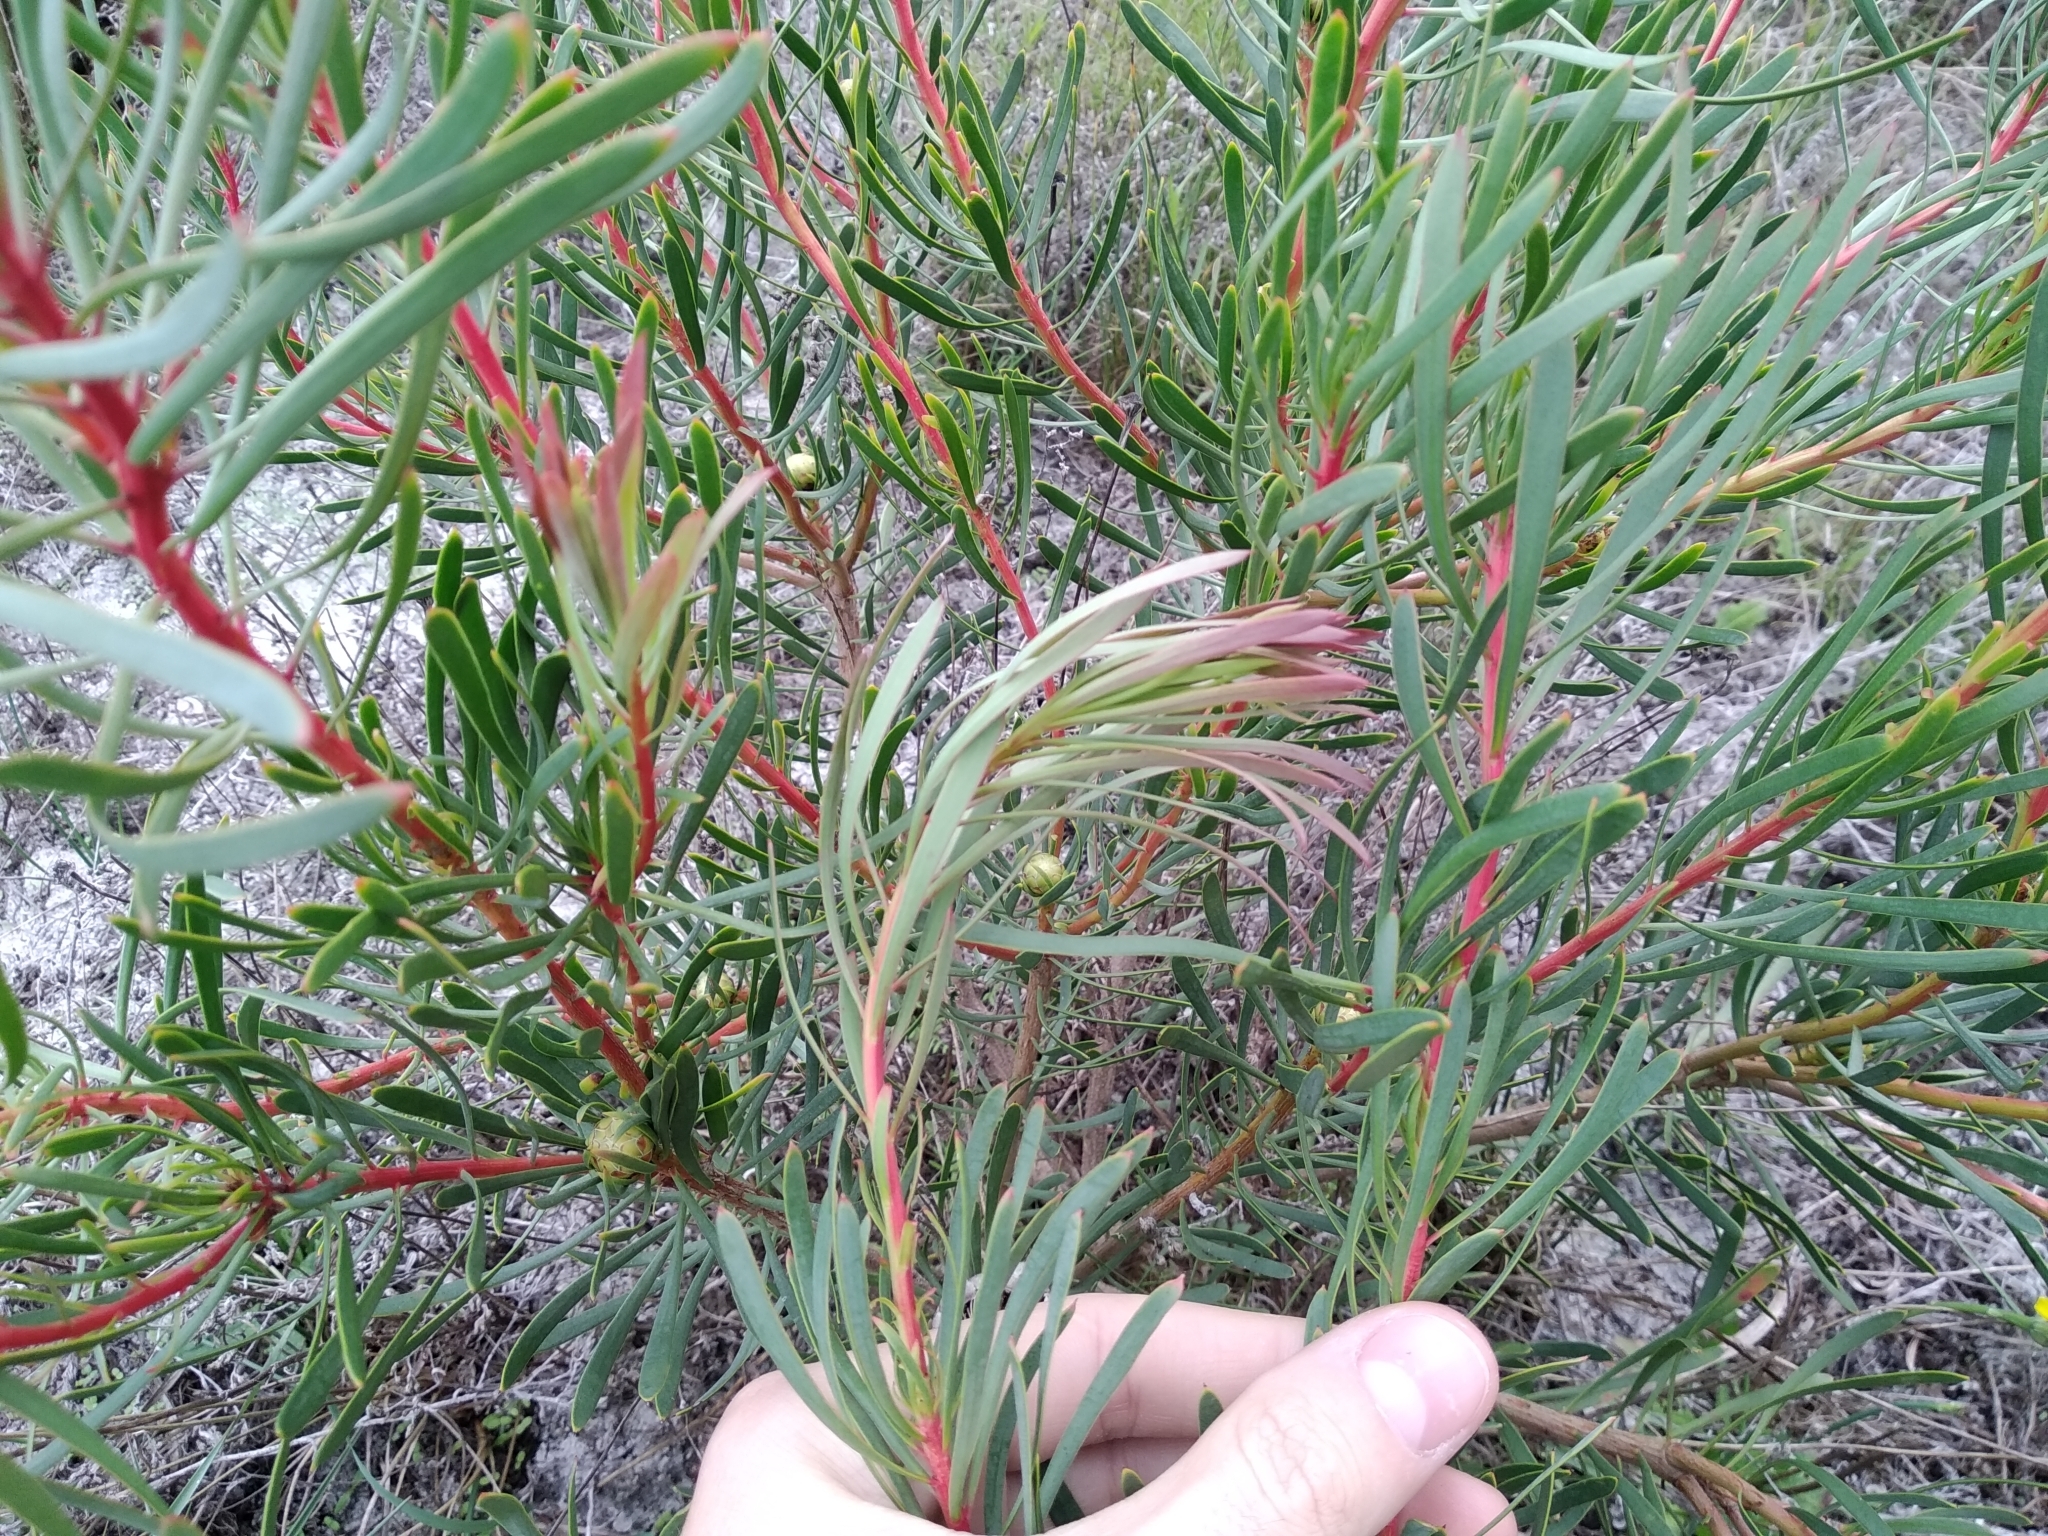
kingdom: Plantae
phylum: Tracheophyta
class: Magnoliopsida
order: Proteales
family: Proteaceae
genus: Protea
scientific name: Protea scolymocephala
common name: Thistle sugarbush
